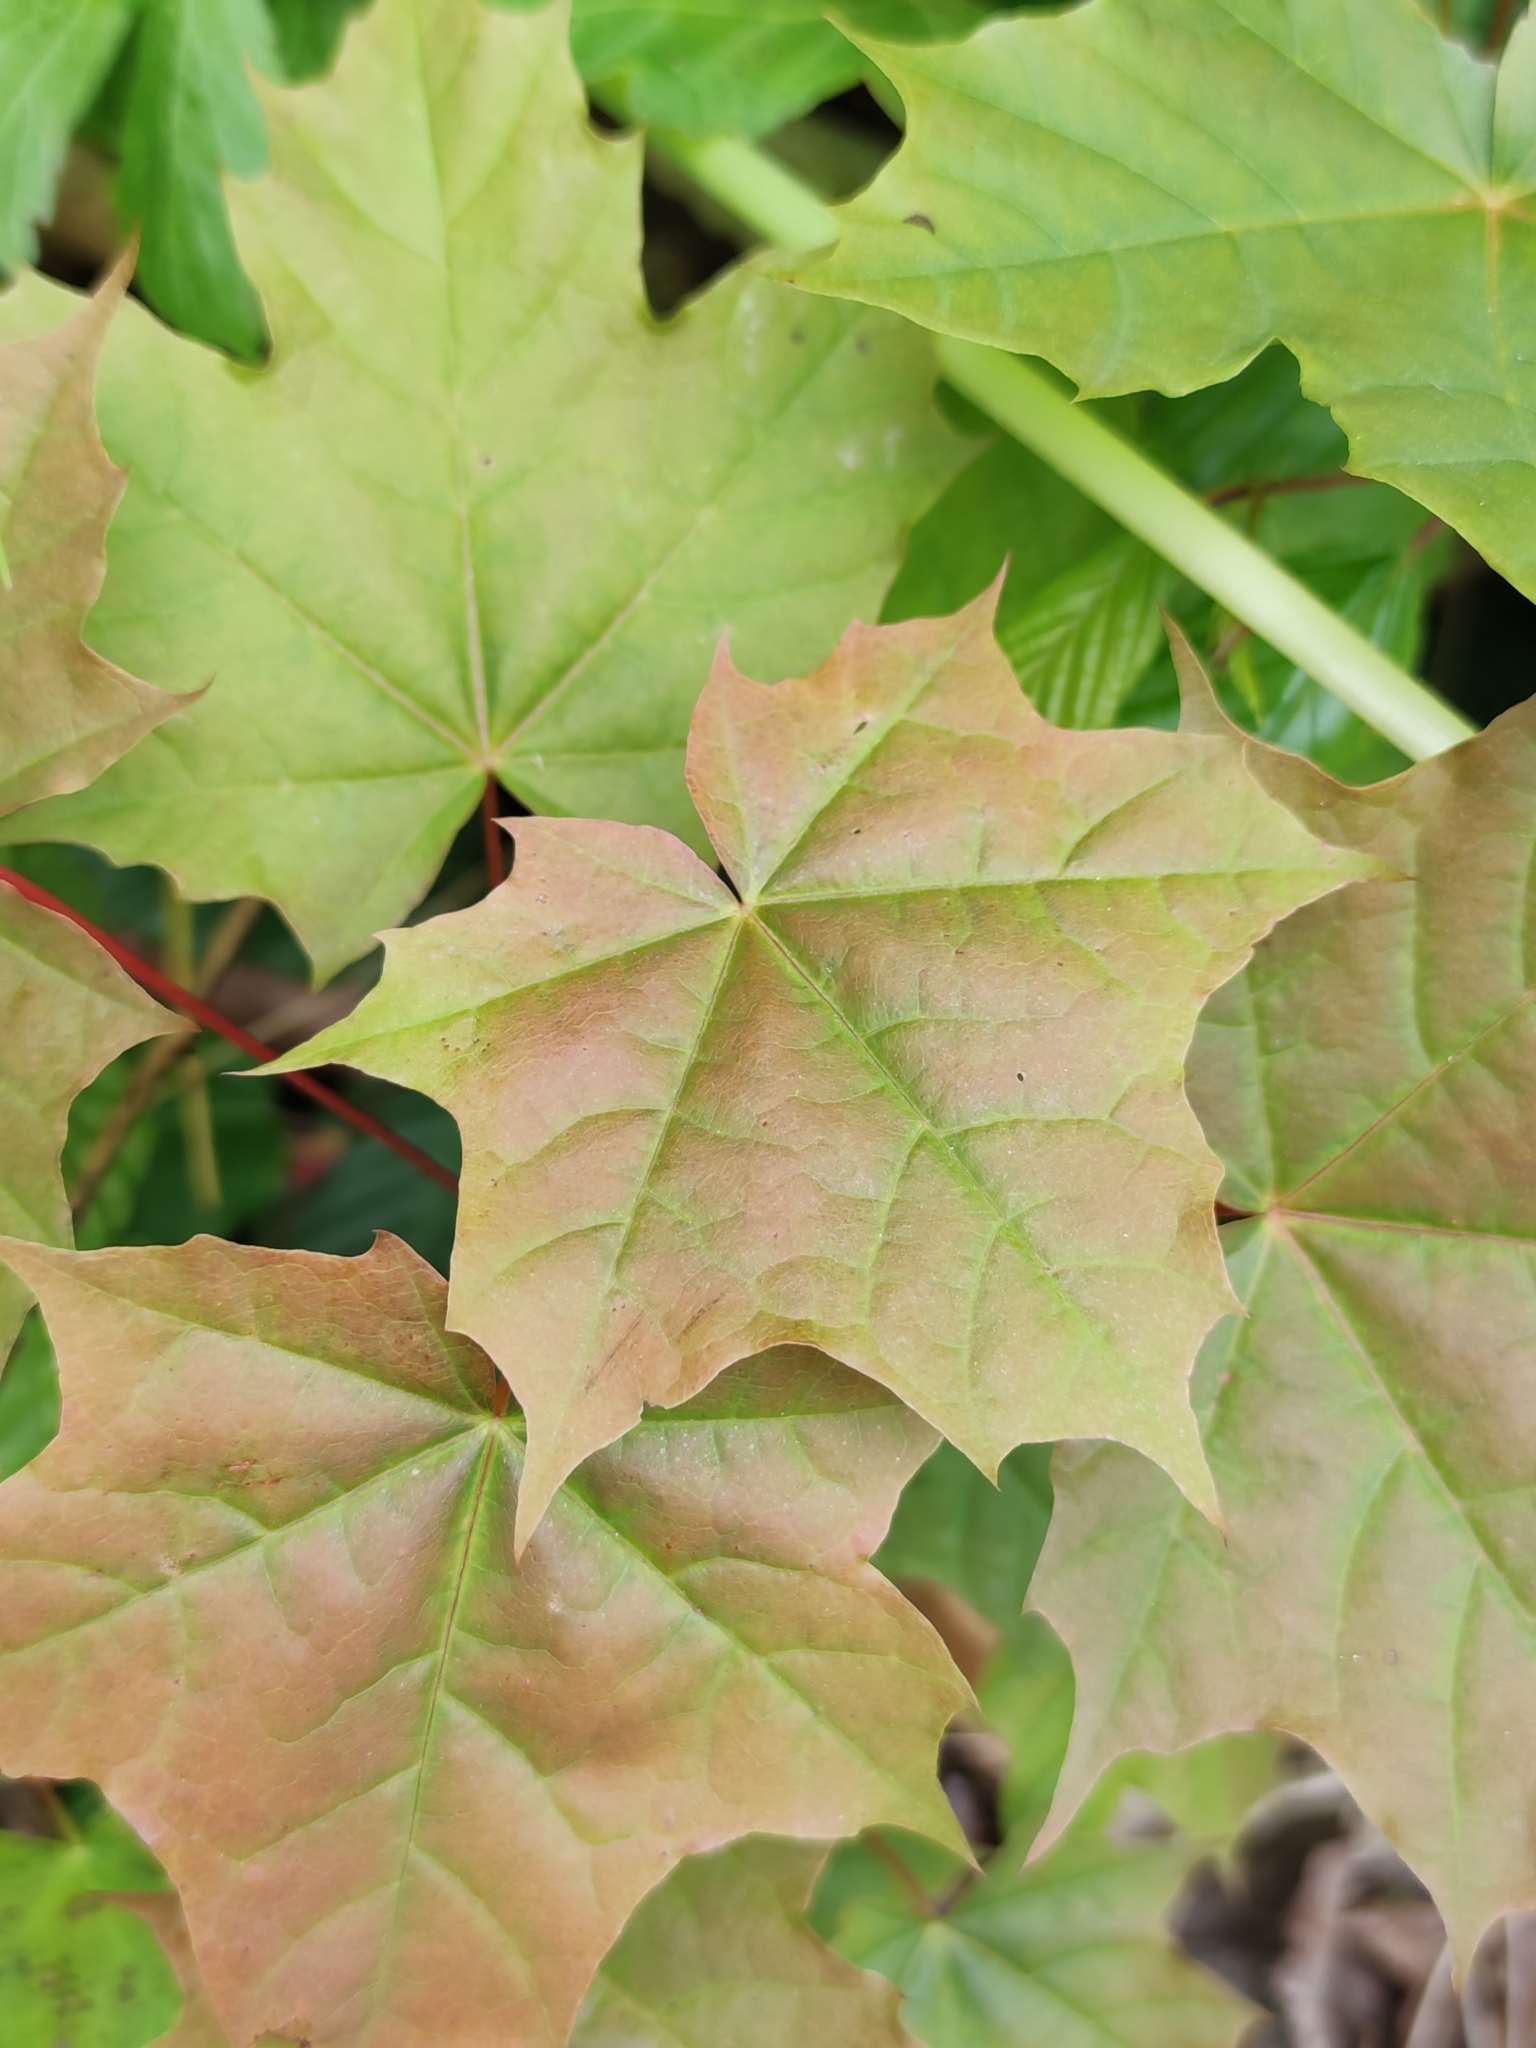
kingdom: Plantae
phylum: Tracheophyta
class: Magnoliopsida
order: Sapindales
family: Sapindaceae
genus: Acer
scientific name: Acer platanoides
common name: Norway maple
